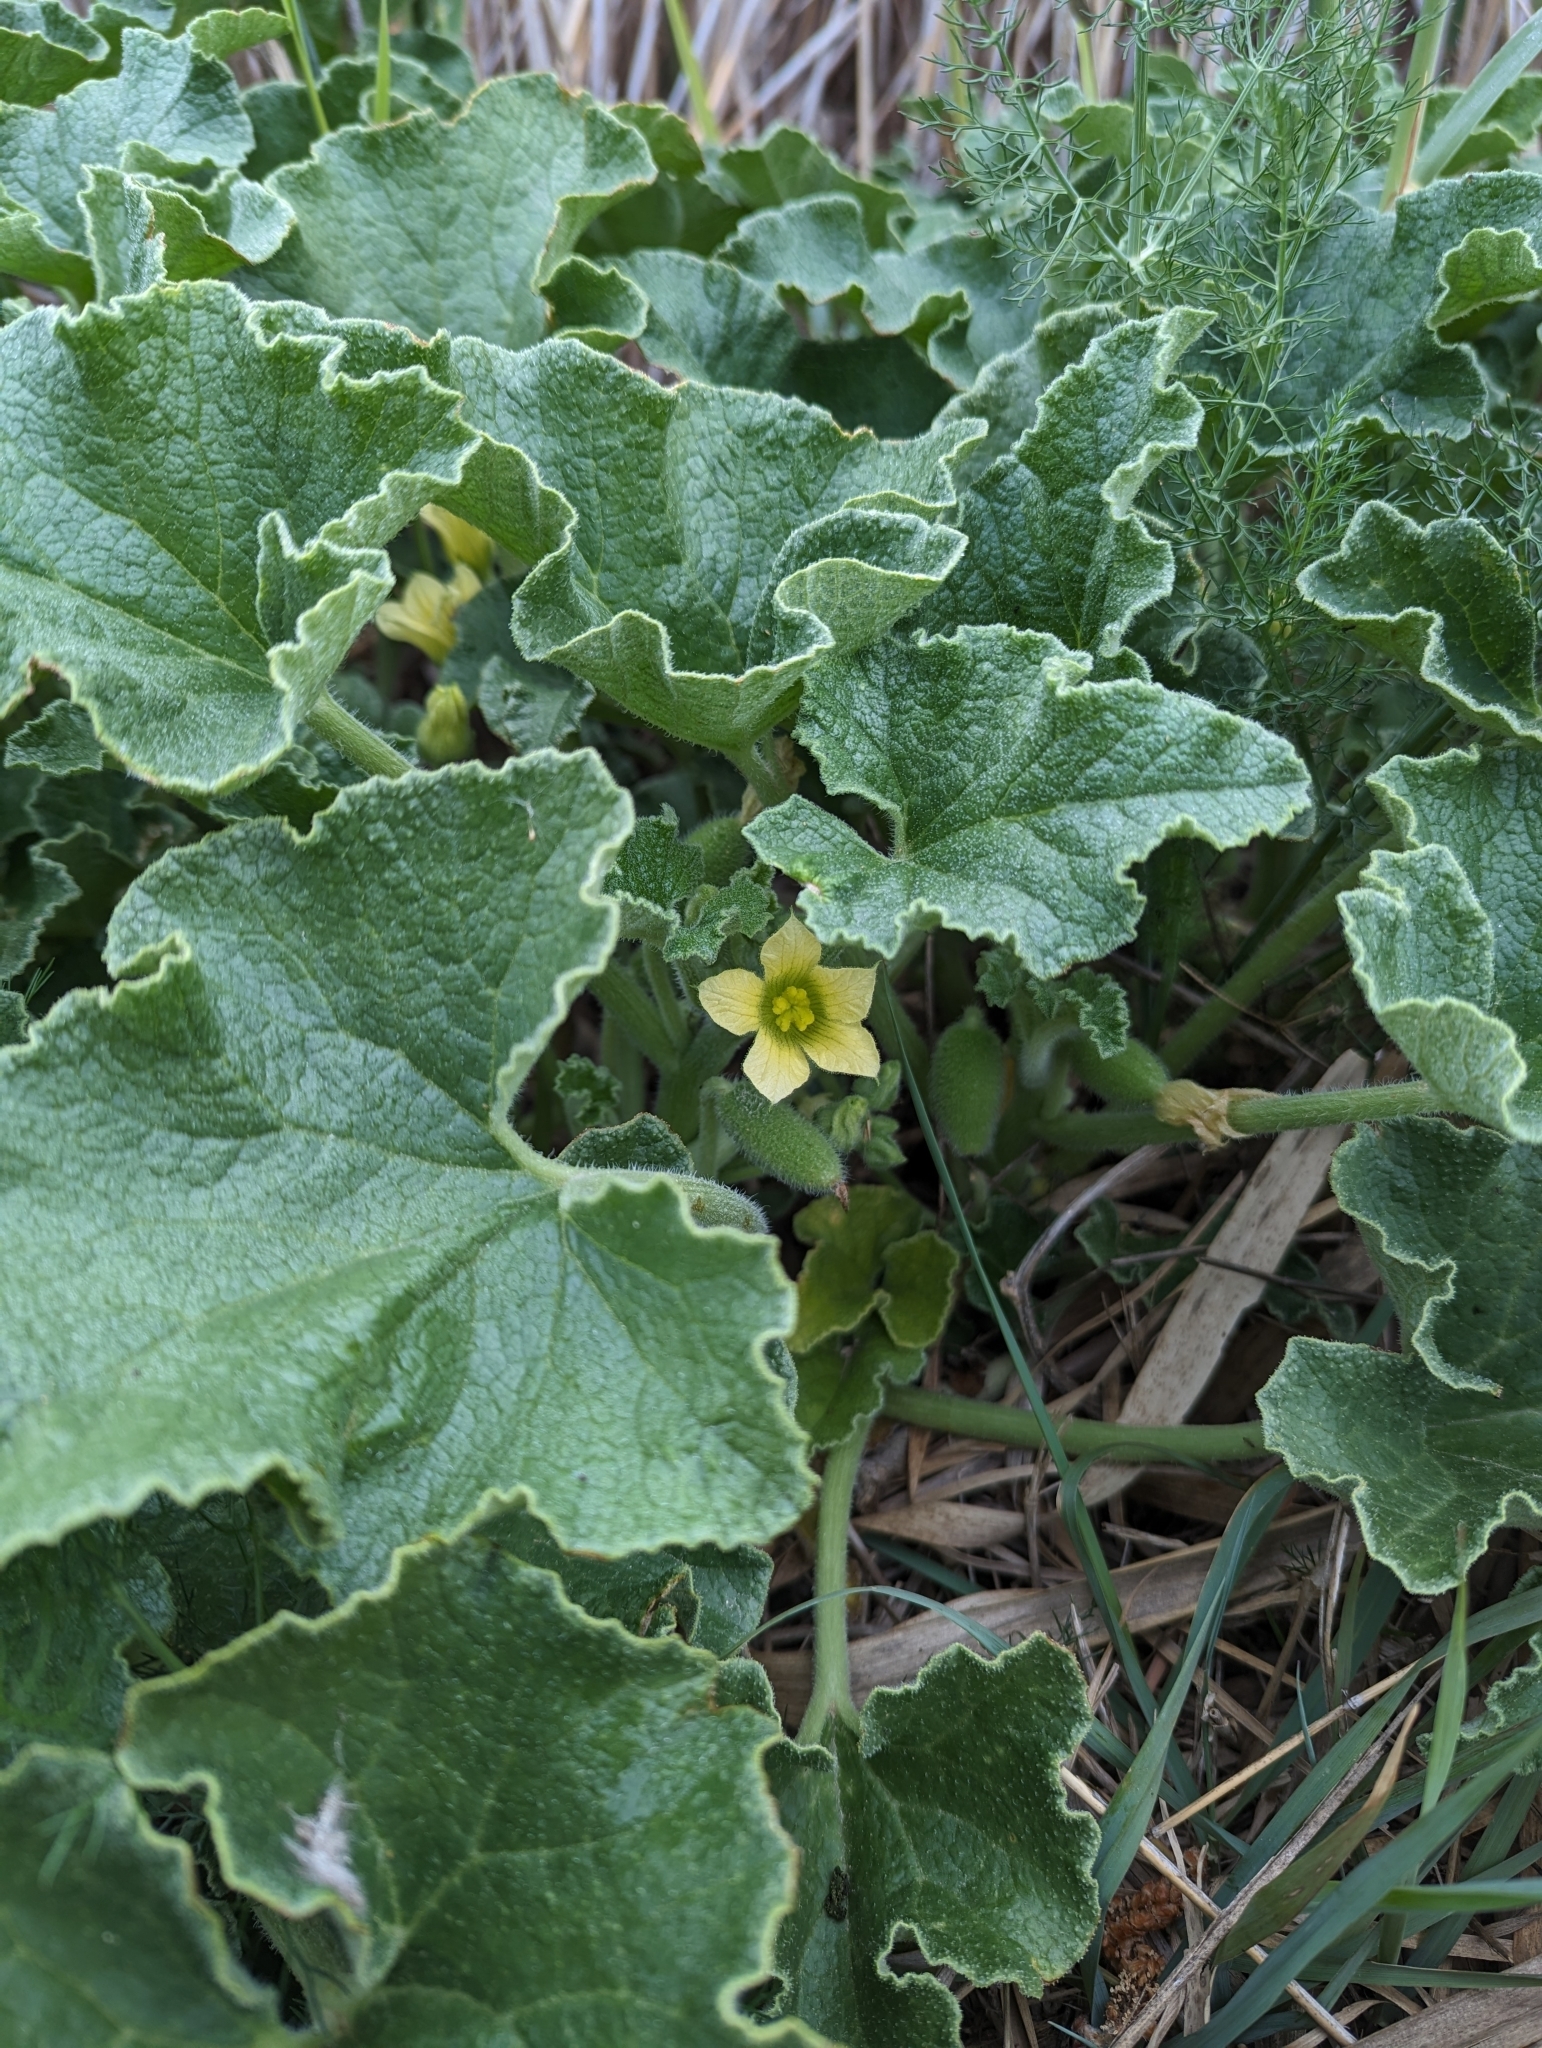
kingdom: Plantae
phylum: Tracheophyta
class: Magnoliopsida
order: Cucurbitales
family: Cucurbitaceae
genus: Ecballium
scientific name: Ecballium elaterium
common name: Squirting cucumber
